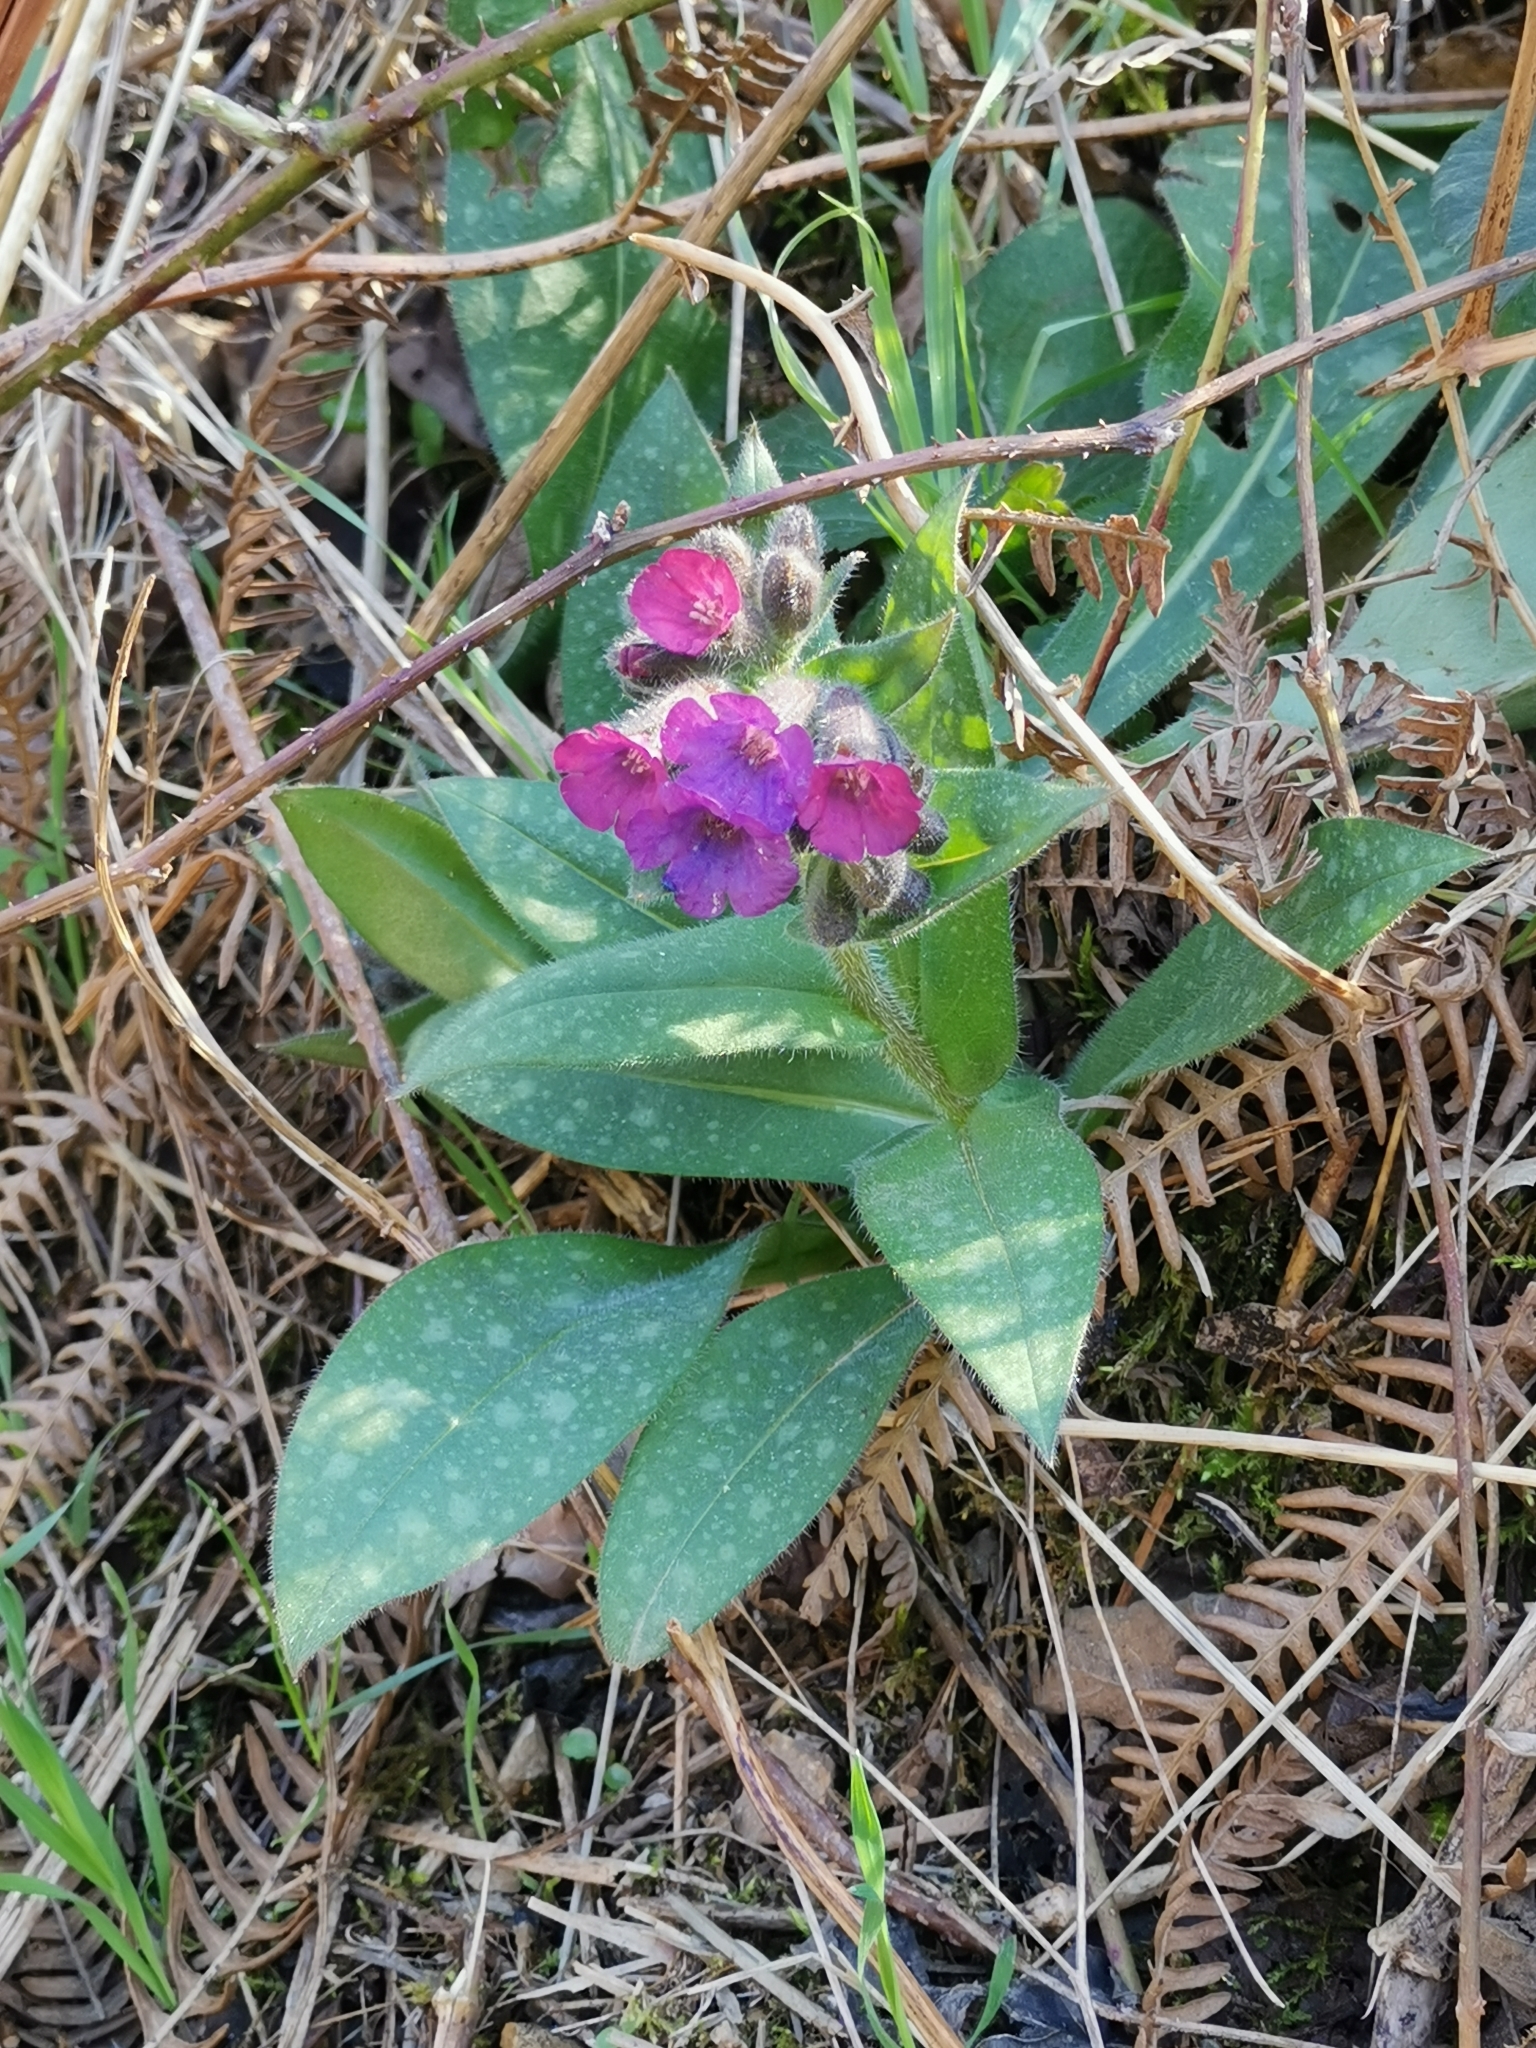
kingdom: Plantae
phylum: Tracheophyta
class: Magnoliopsida
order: Boraginales
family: Boraginaceae
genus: Pulmonaria
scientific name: Pulmonaria officinalis
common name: Lungwort
